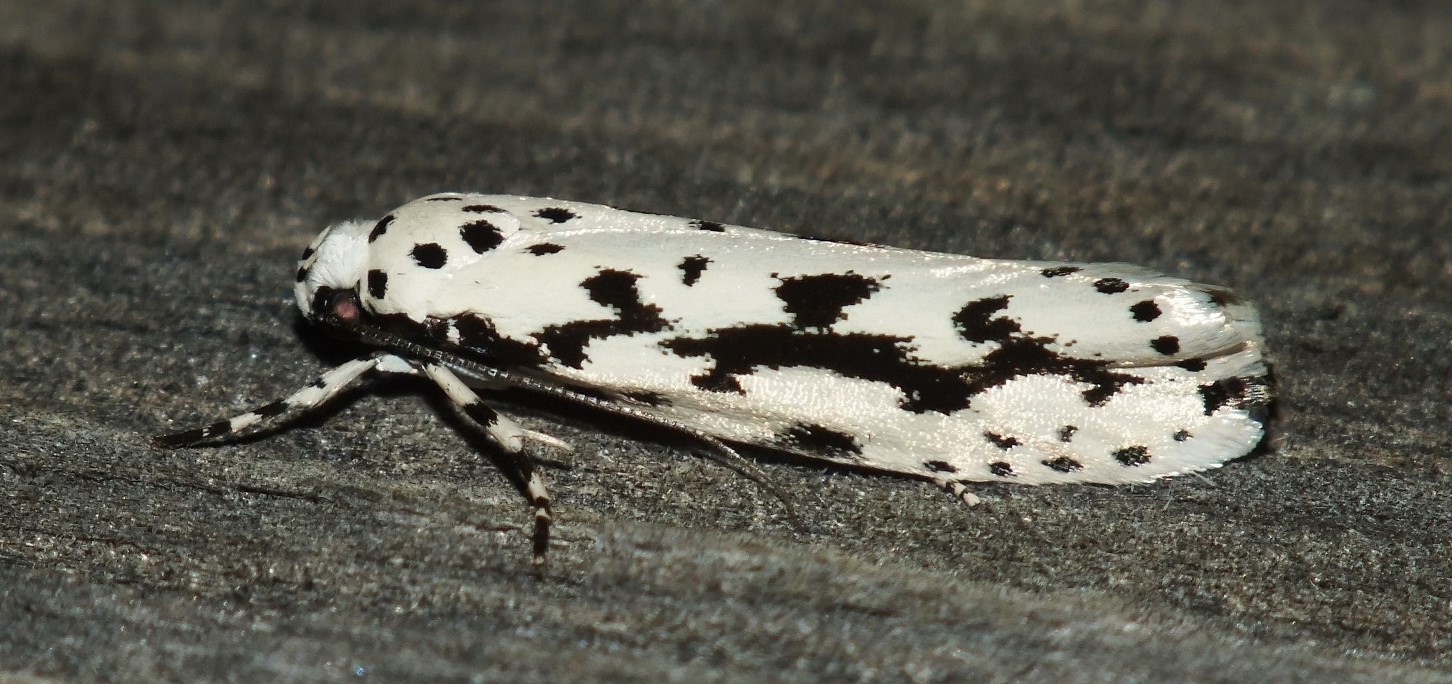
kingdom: Animalia
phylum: Arthropoda
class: Insecta
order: Lepidoptera
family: Ethmiidae
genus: Ethmia
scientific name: Ethmia candidella
